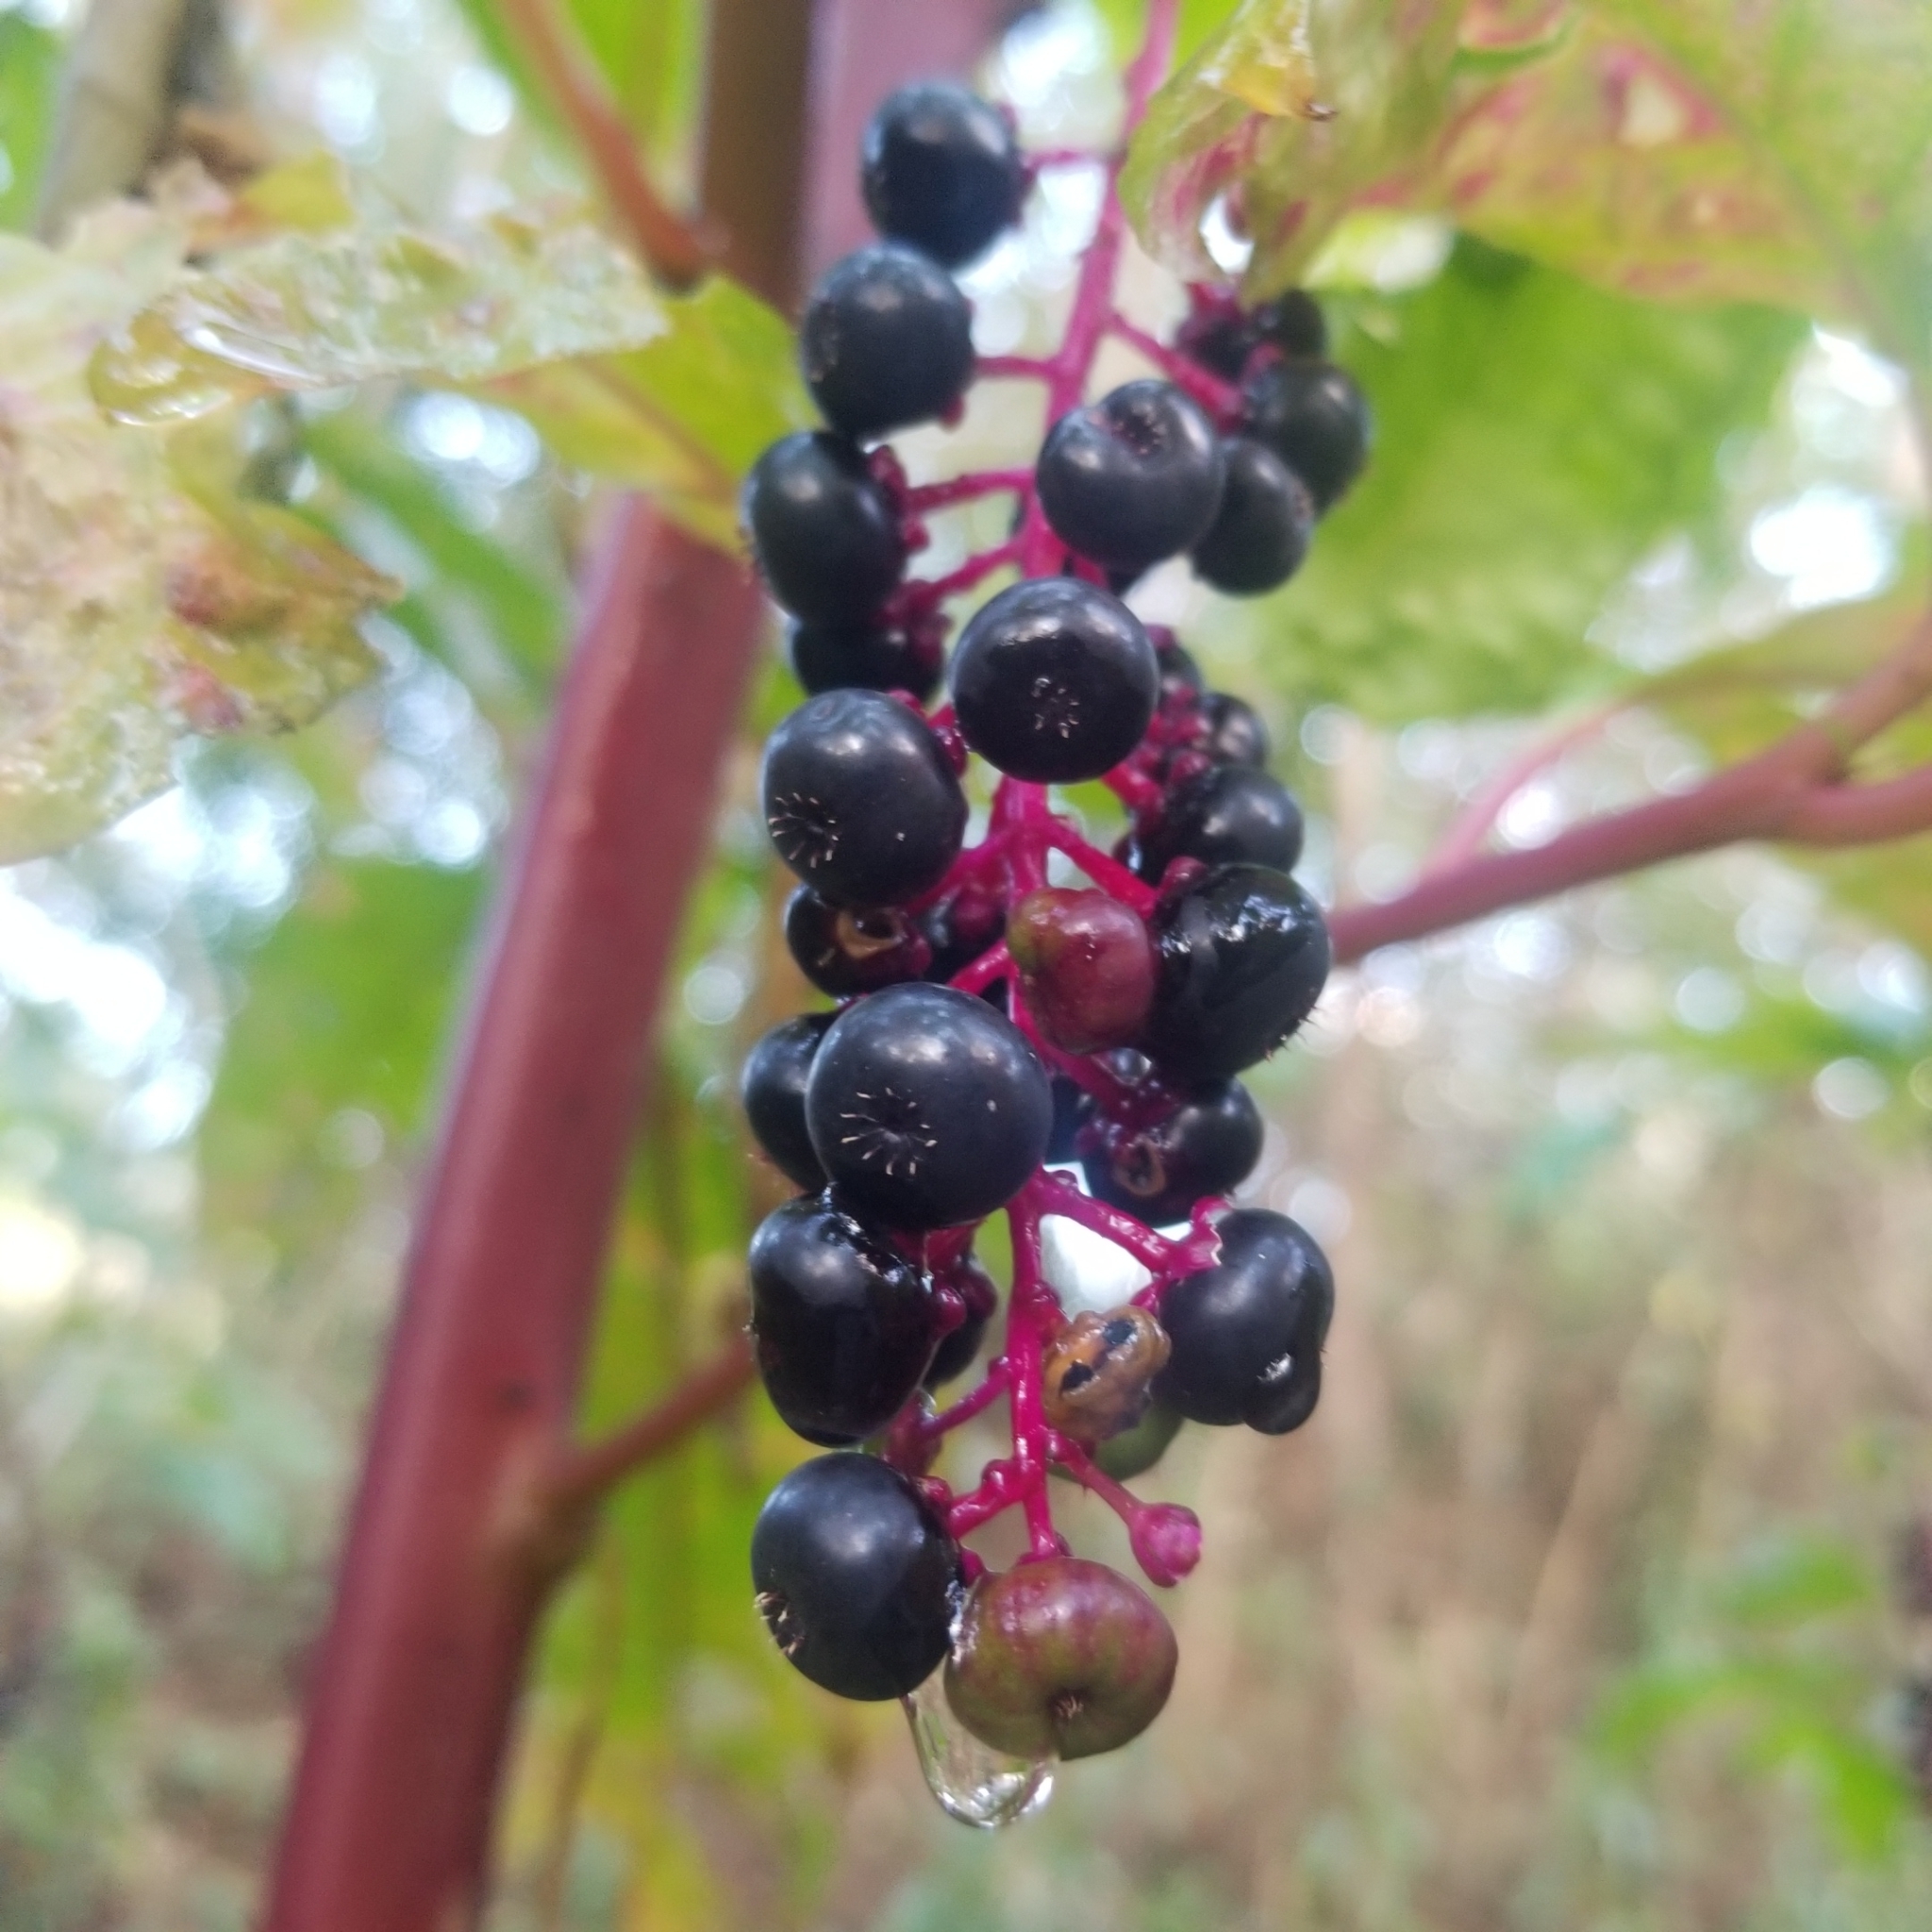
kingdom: Plantae
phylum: Tracheophyta
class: Magnoliopsida
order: Caryophyllales
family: Phytolaccaceae
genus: Phytolacca
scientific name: Phytolacca americana
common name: American pokeweed
